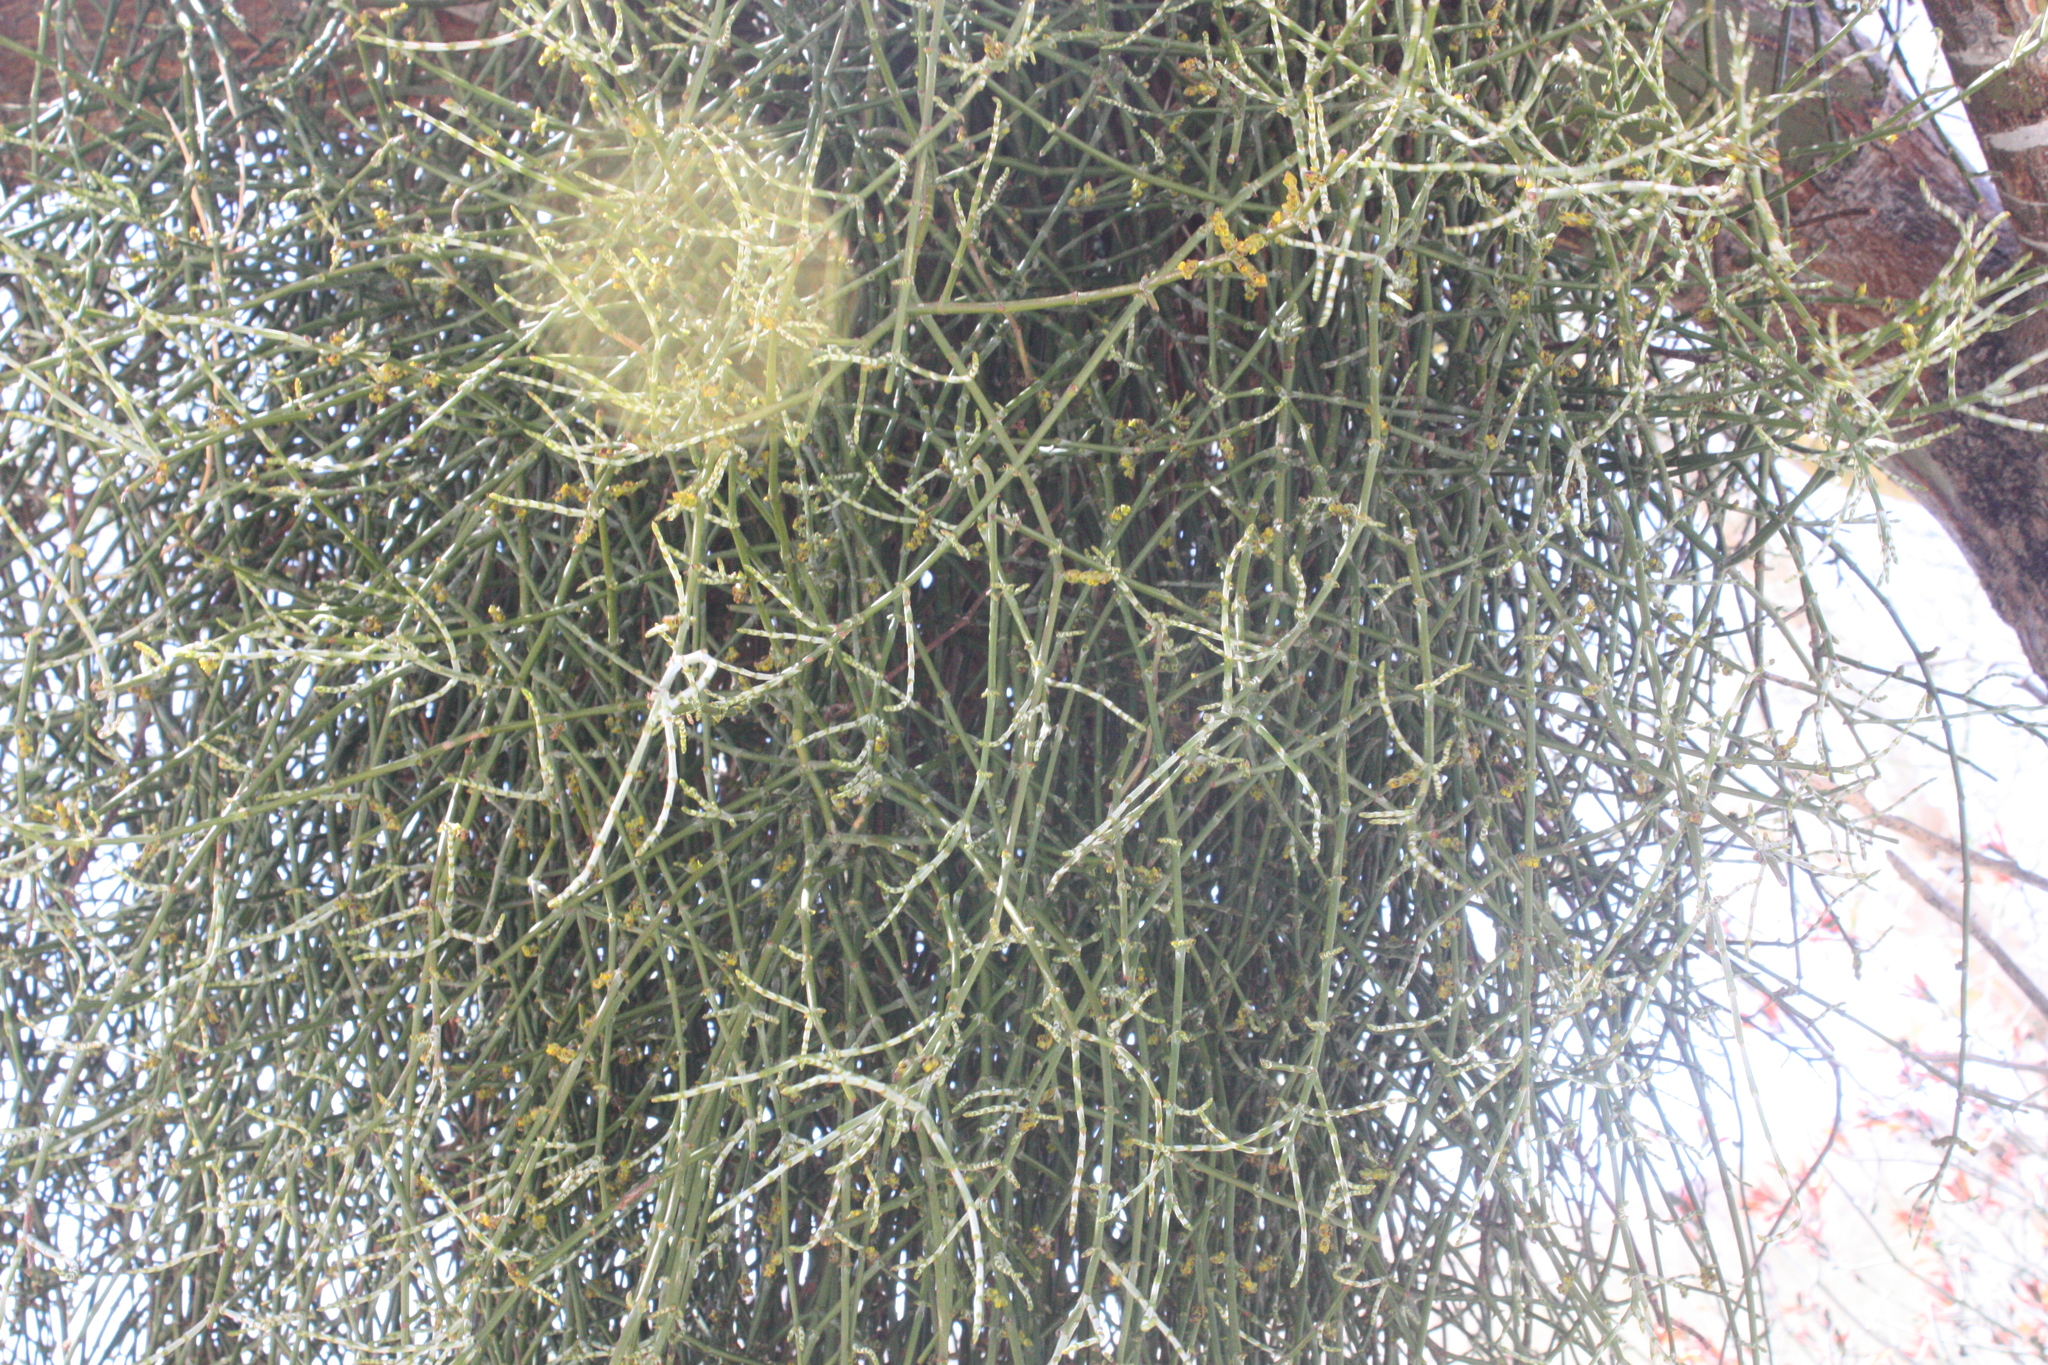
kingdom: Plantae
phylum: Tracheophyta
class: Magnoliopsida
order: Santalales
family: Viscaceae
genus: Phoradendron
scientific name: Phoradendron californicum
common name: Acacia mistletoe
